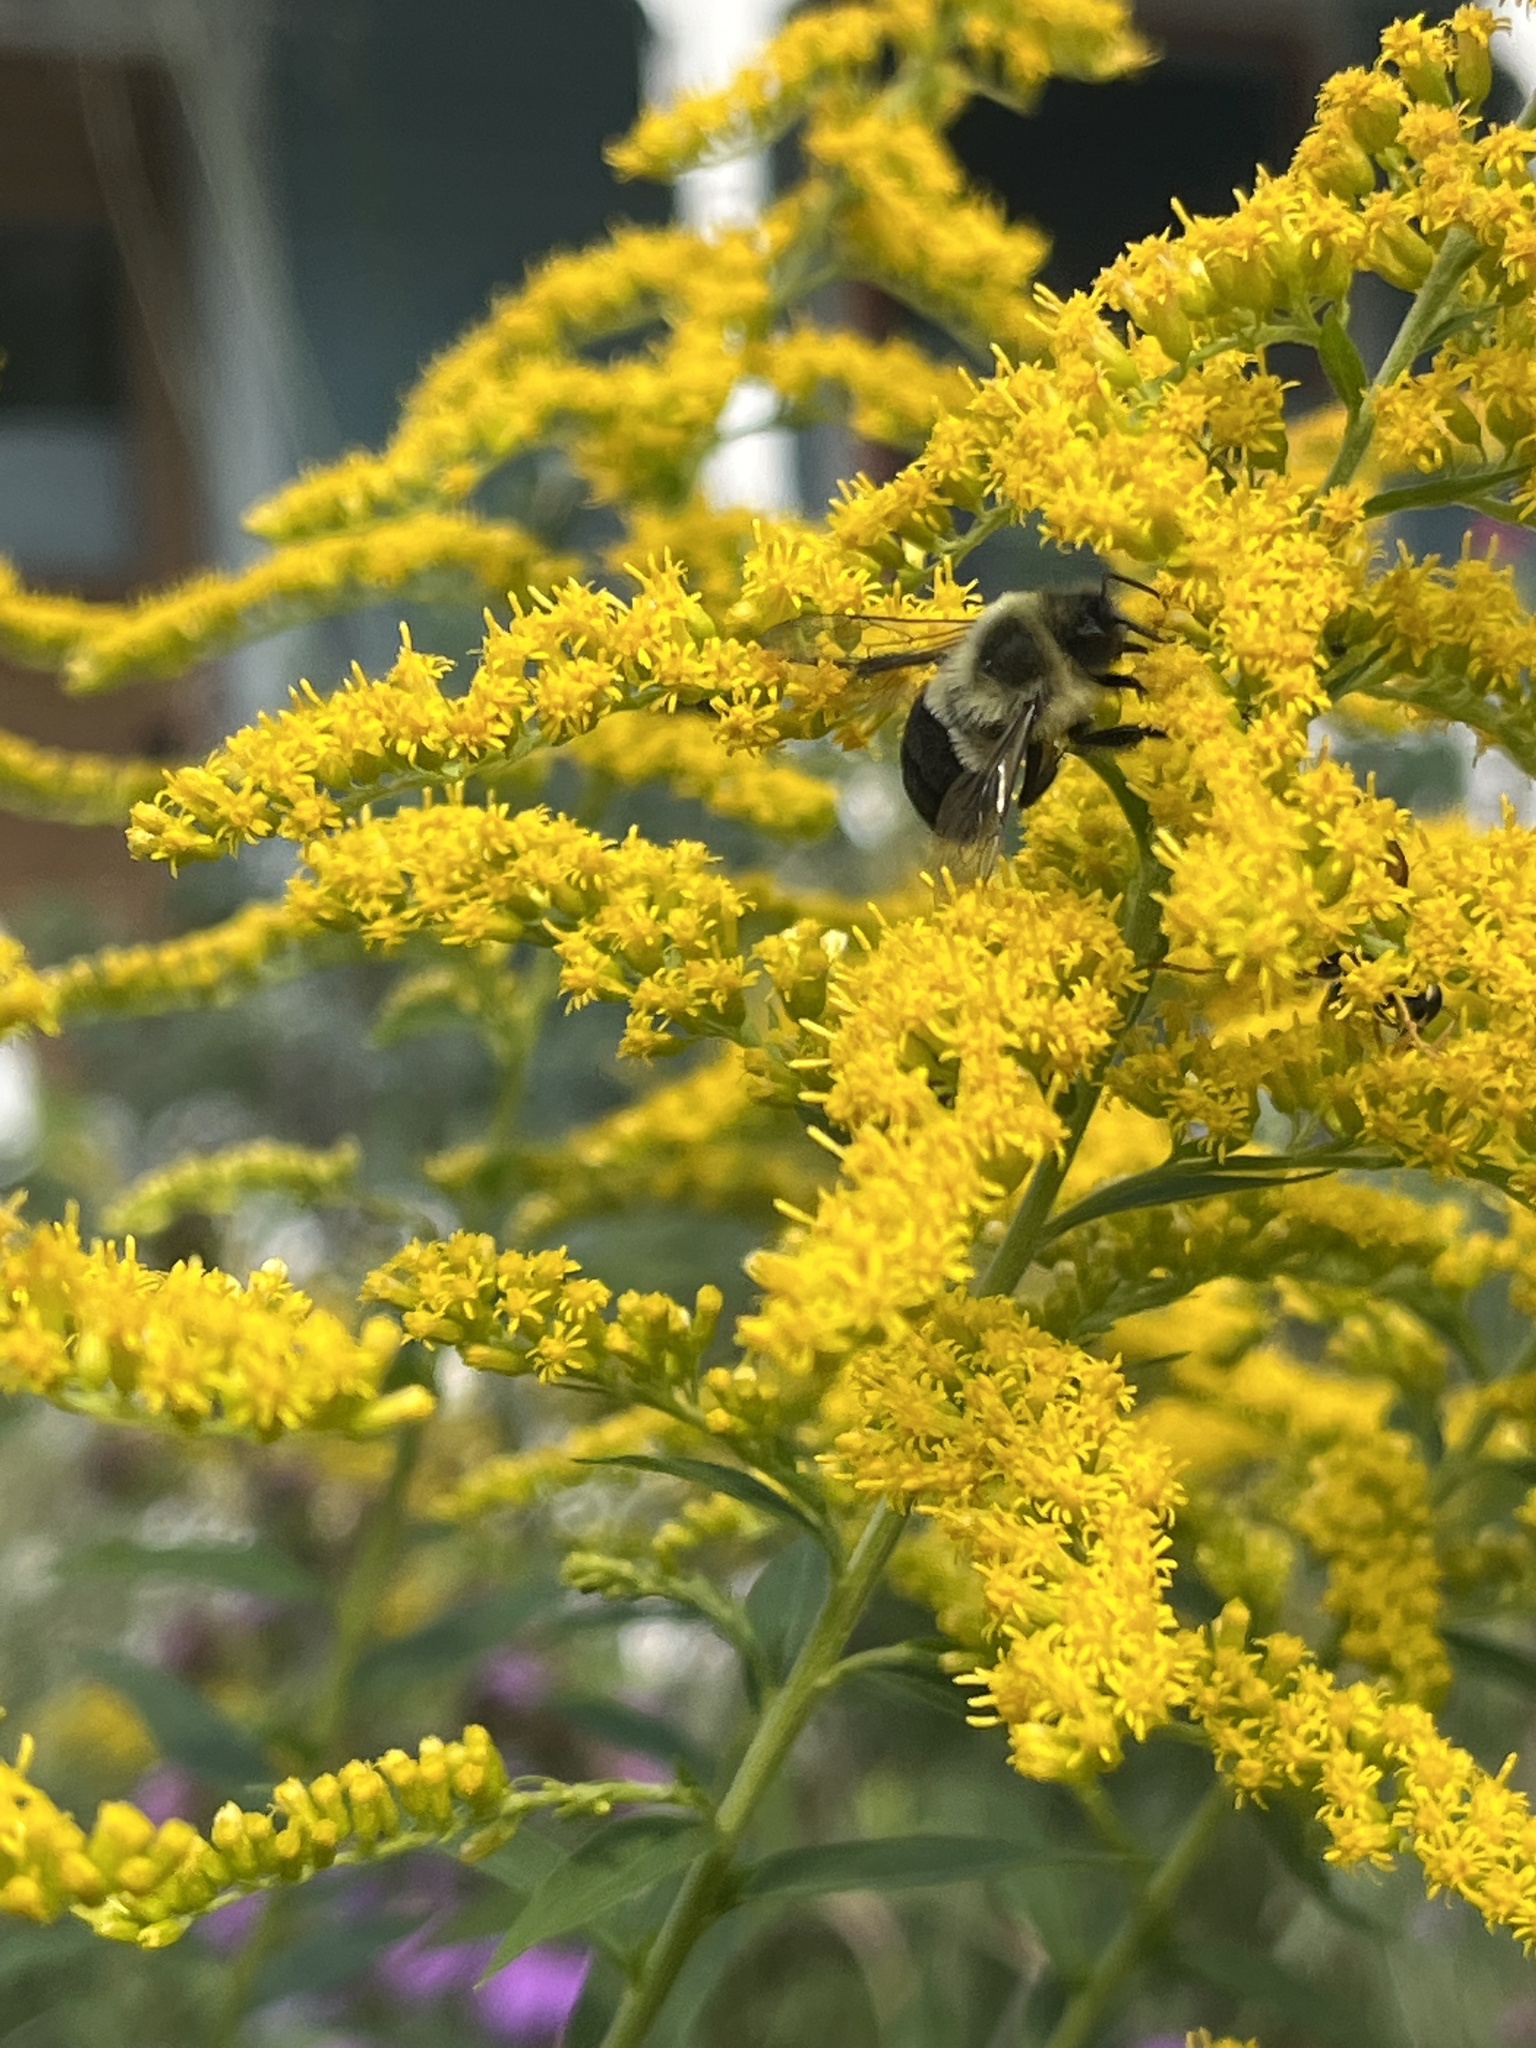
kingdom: Animalia
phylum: Arthropoda
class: Insecta
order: Hymenoptera
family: Apidae
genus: Bombus
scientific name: Bombus impatiens
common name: Common eastern bumble bee
